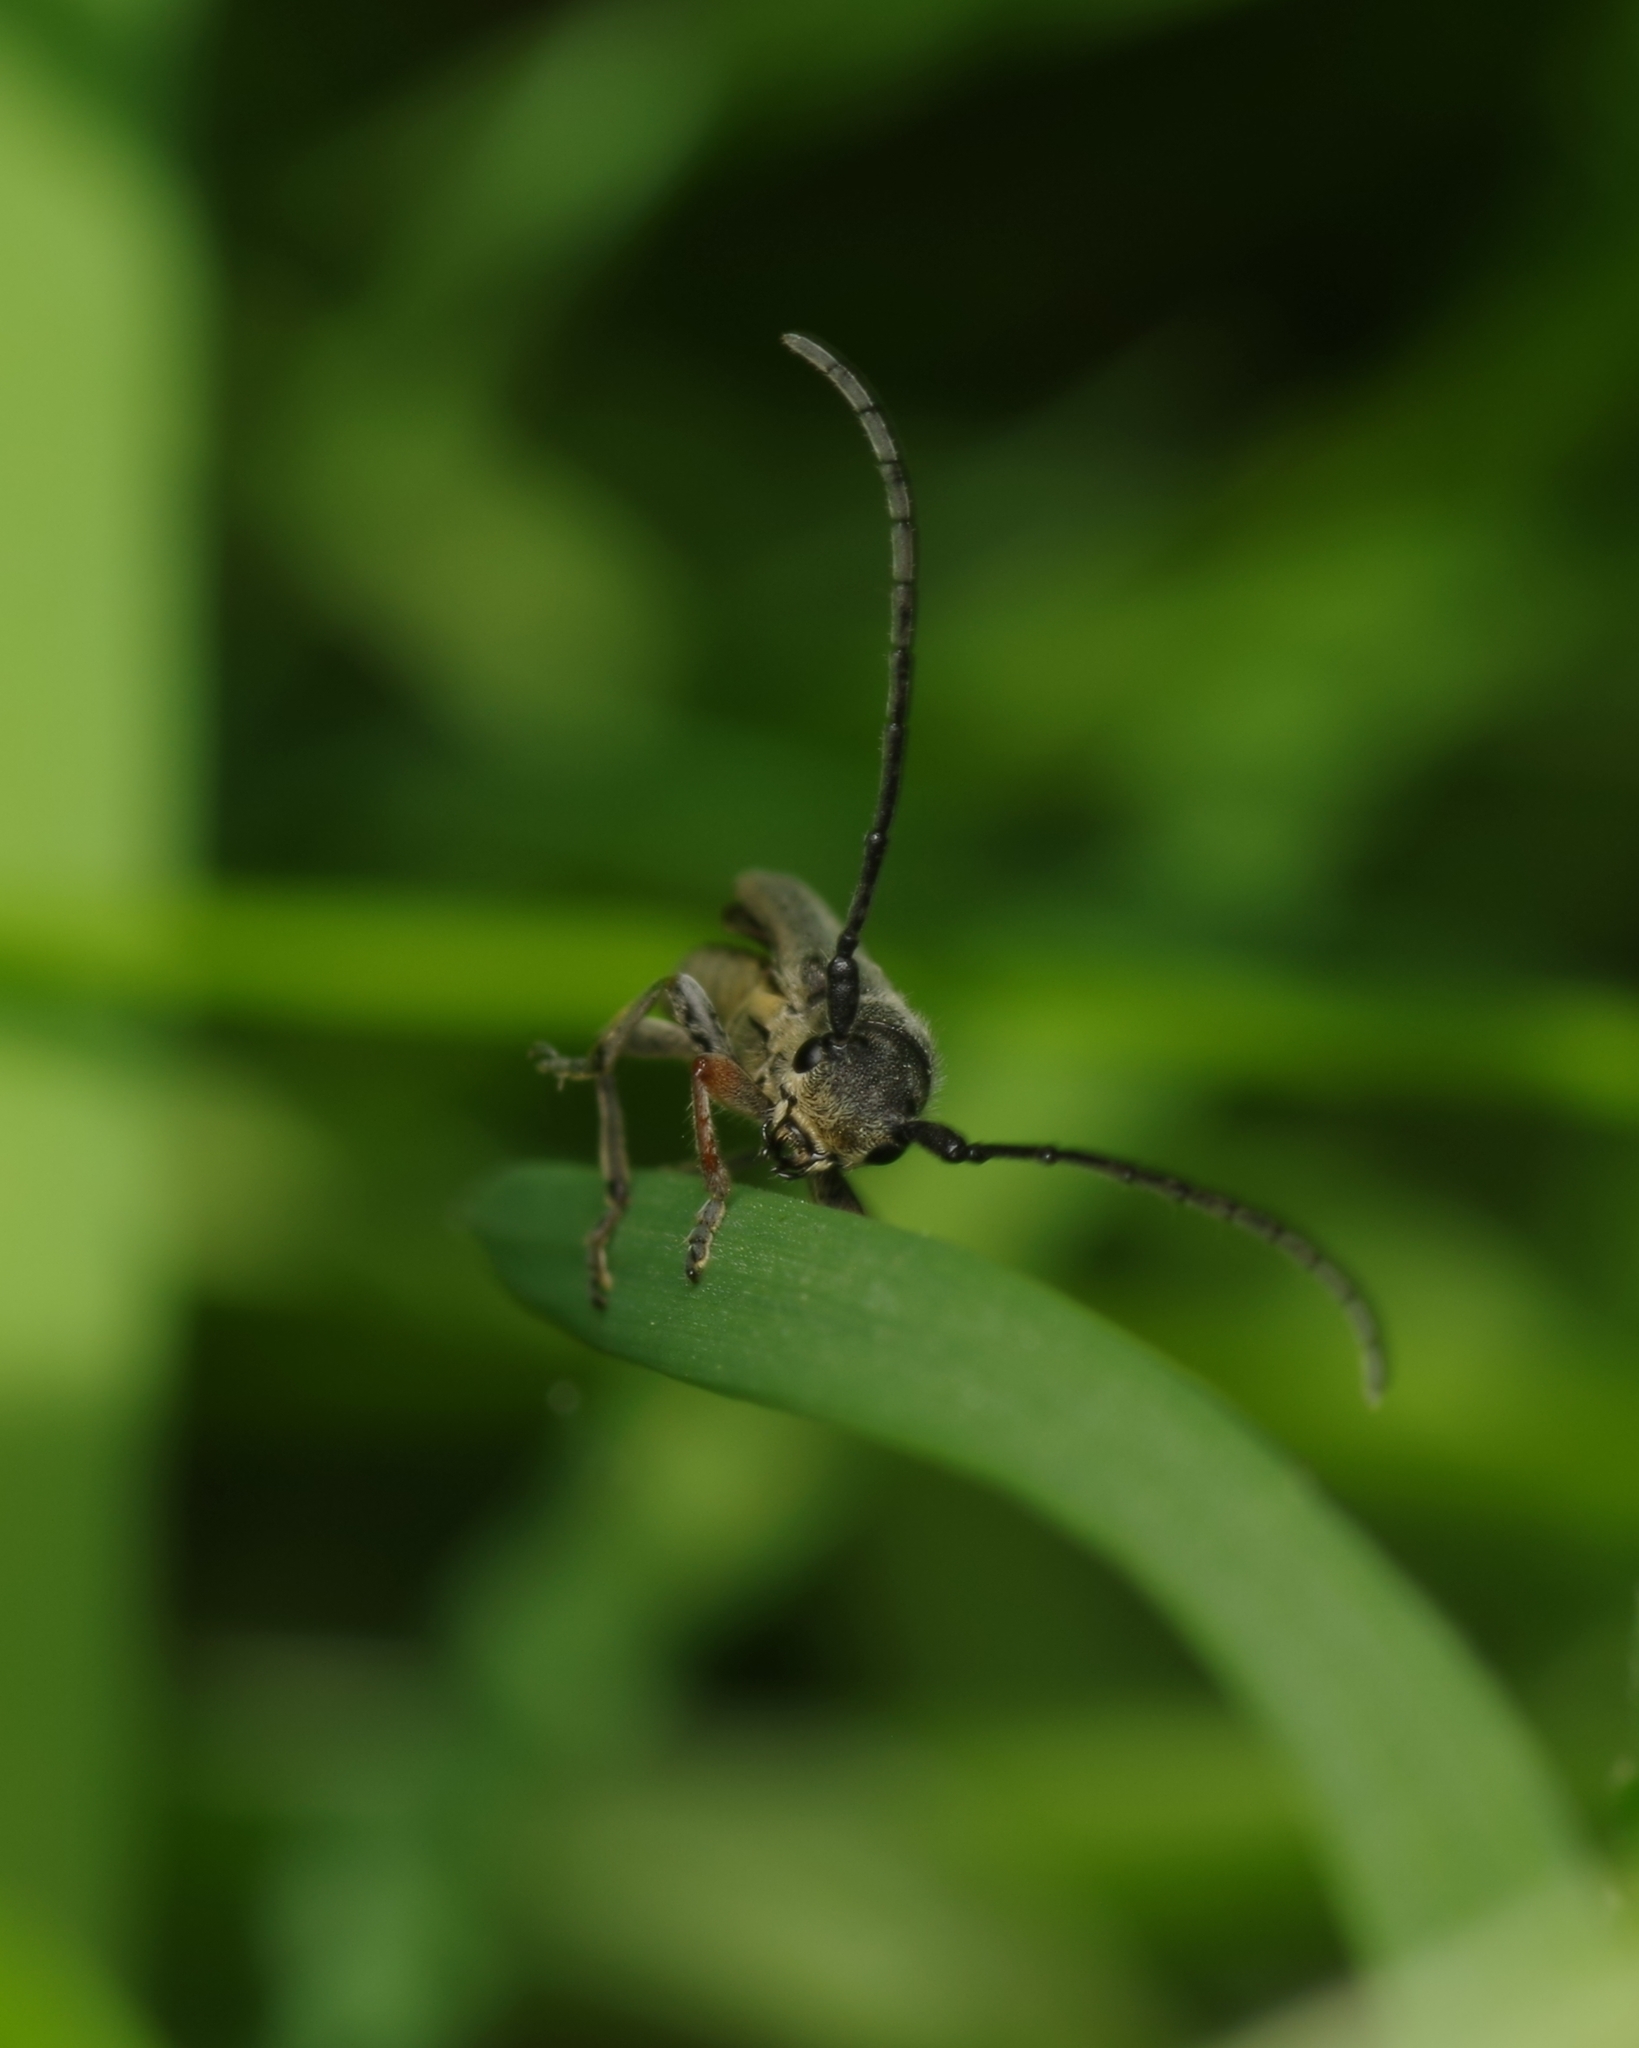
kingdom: Animalia
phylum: Arthropoda
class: Insecta
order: Coleoptera
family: Cerambycidae
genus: Phytoecia
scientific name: Phytoecia cylindrica
